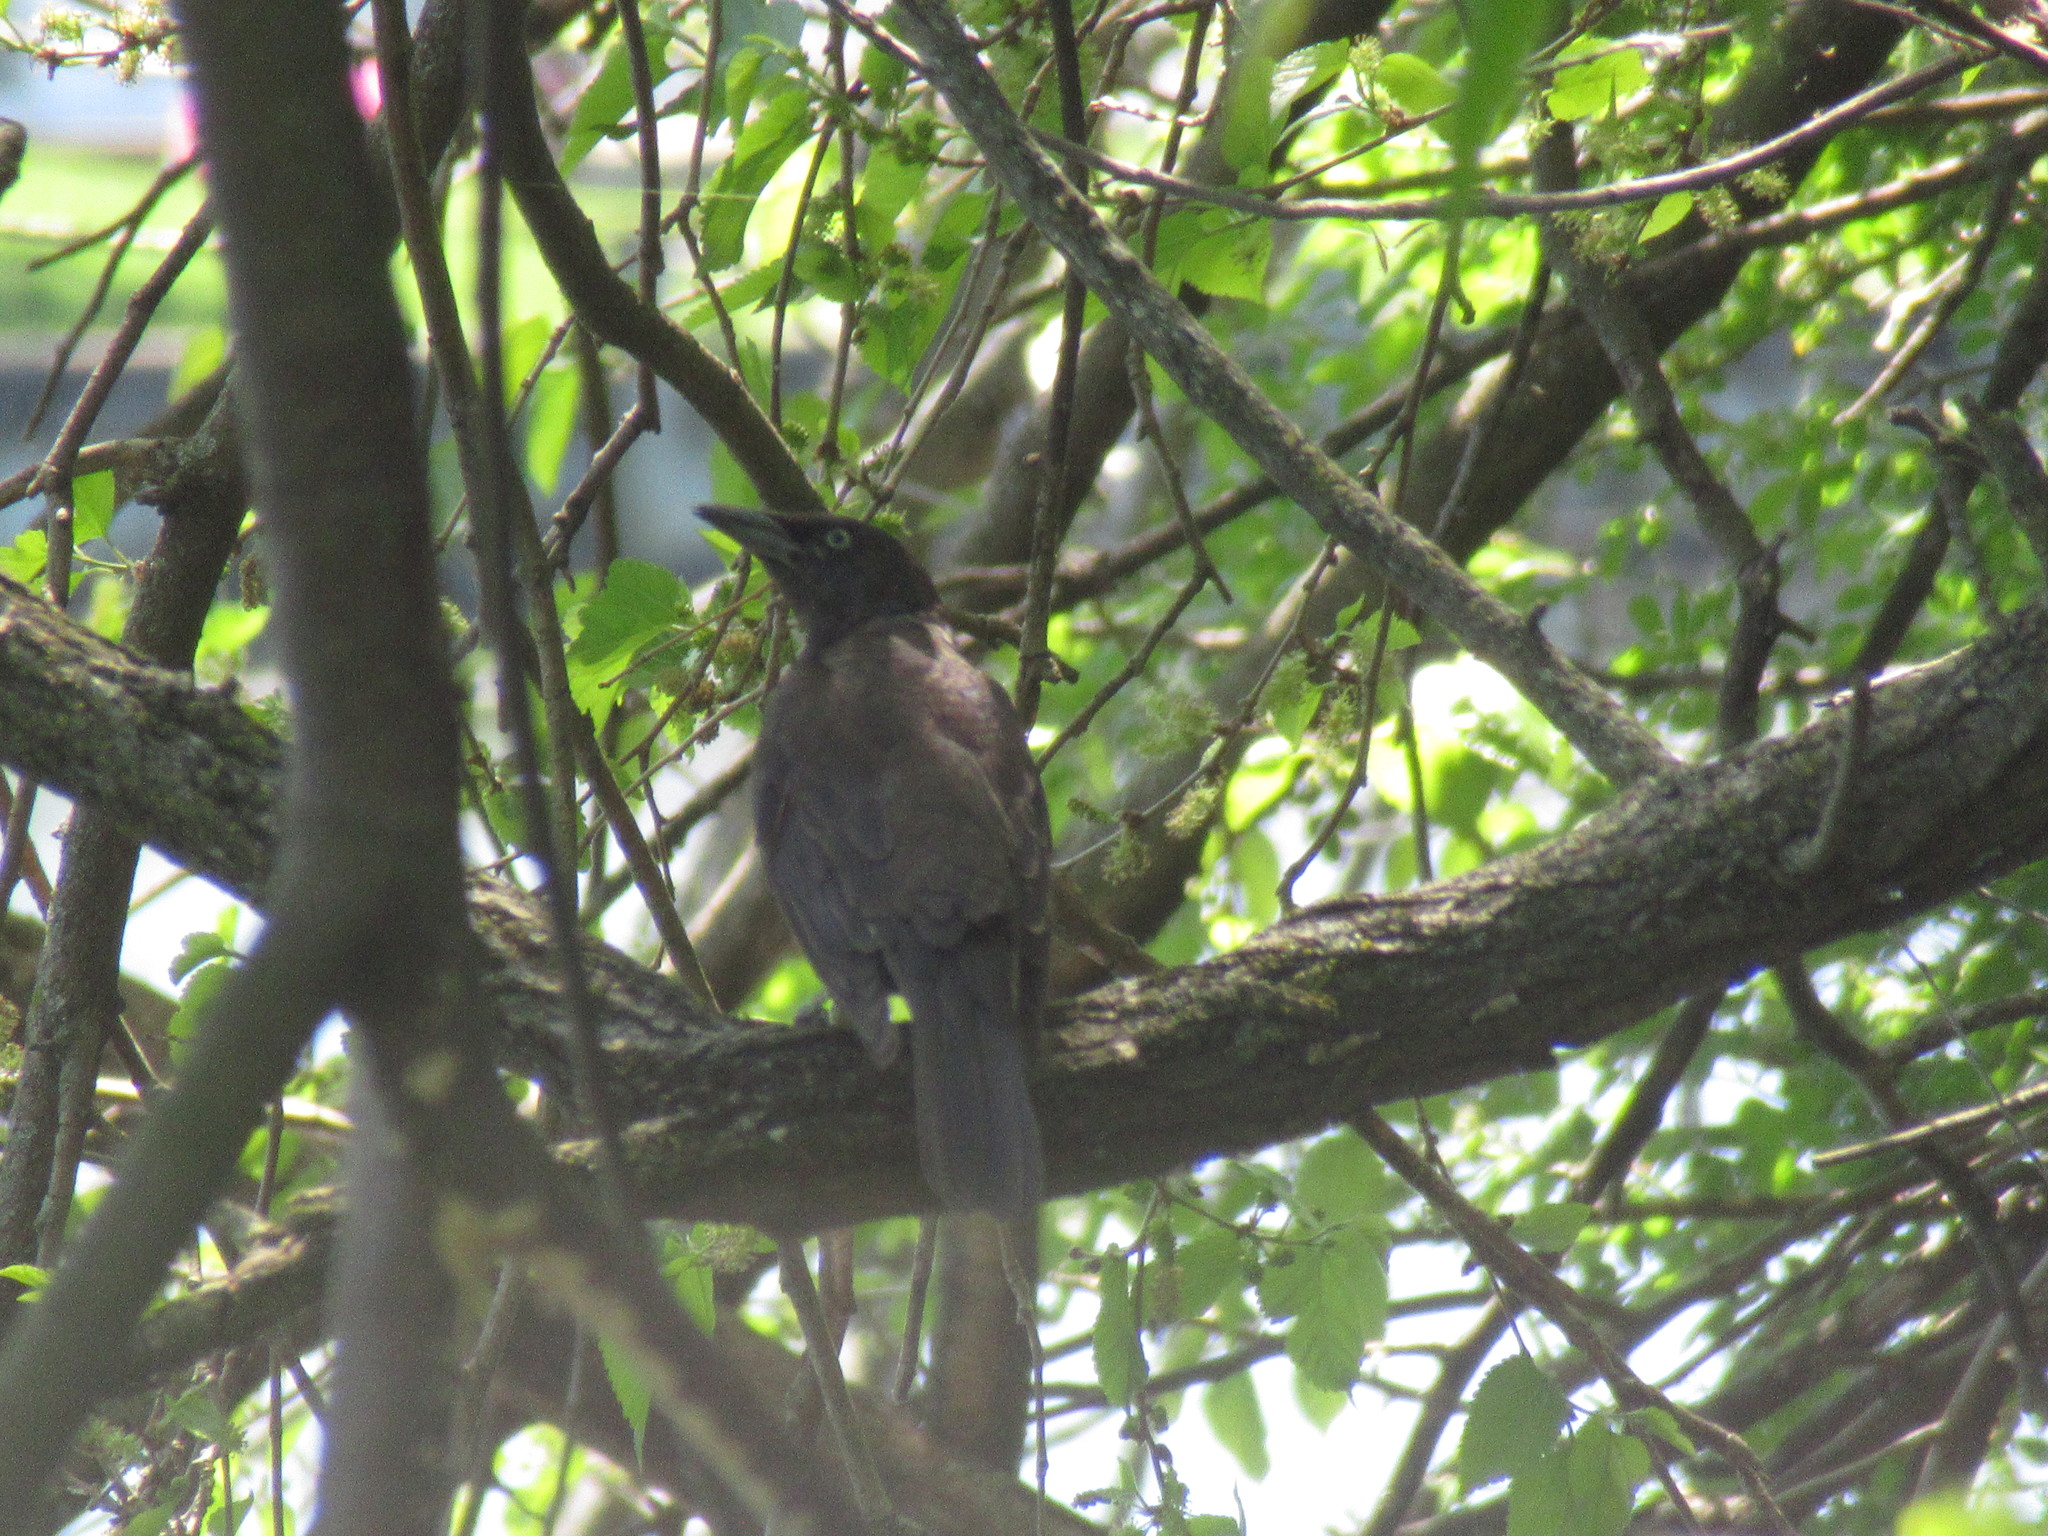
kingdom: Animalia
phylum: Chordata
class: Aves
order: Passeriformes
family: Icteridae
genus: Quiscalus
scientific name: Quiscalus quiscula
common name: Common grackle
